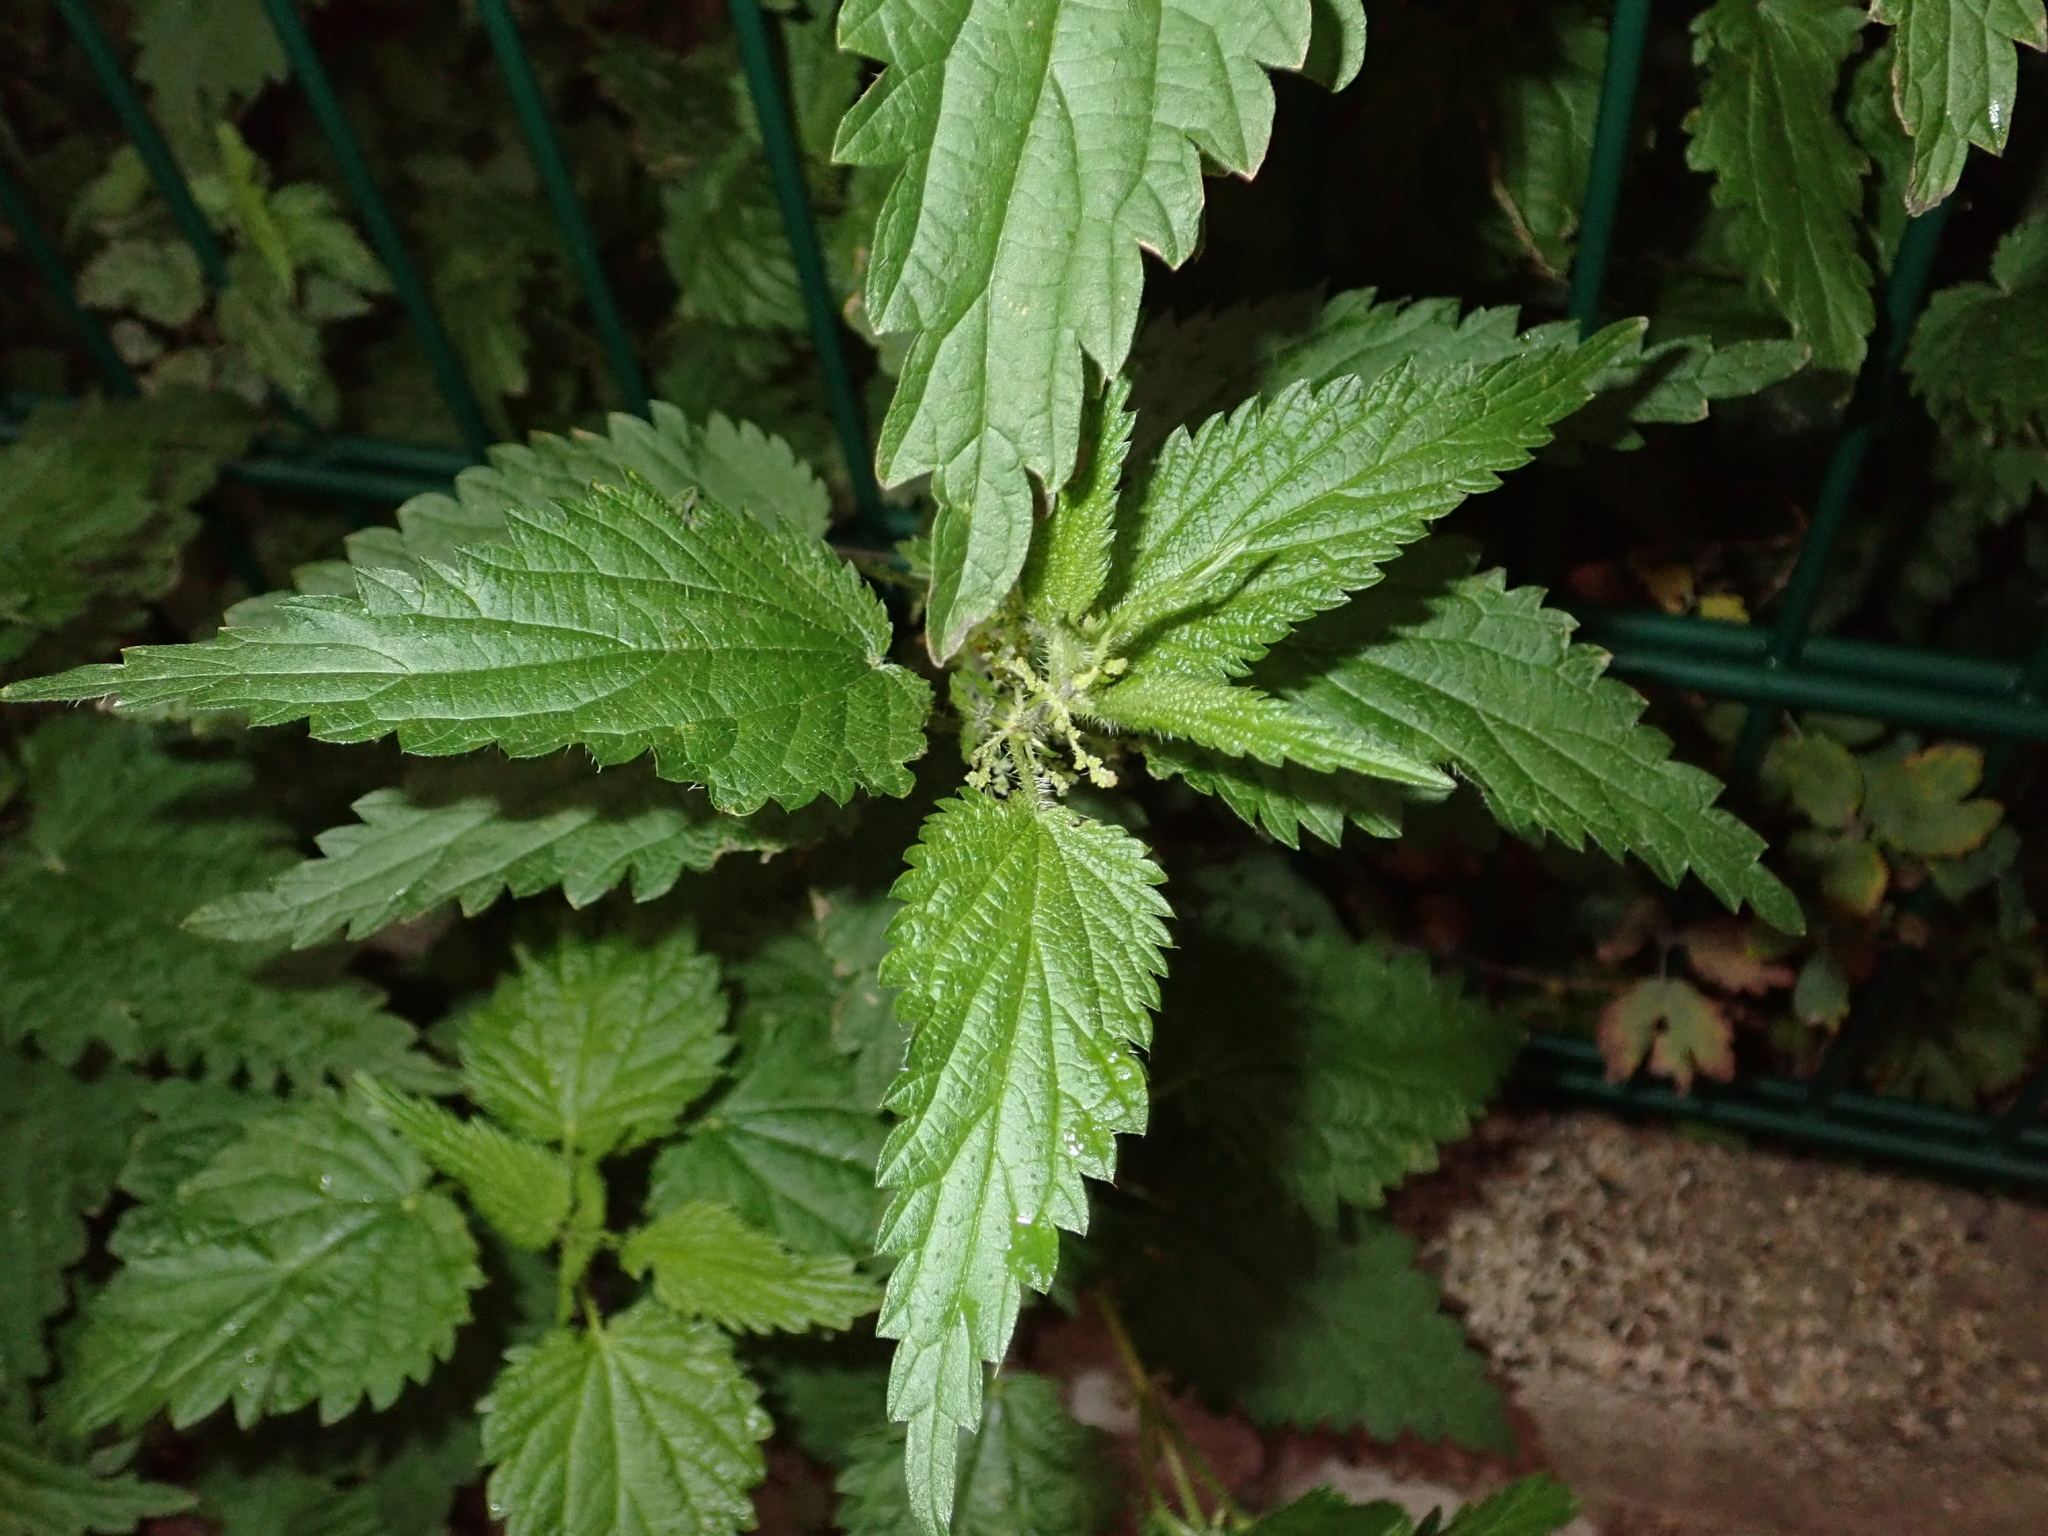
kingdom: Plantae
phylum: Tracheophyta
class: Magnoliopsida
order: Rosales
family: Urticaceae
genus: Urtica
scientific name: Urtica dioica
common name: Common nettle
